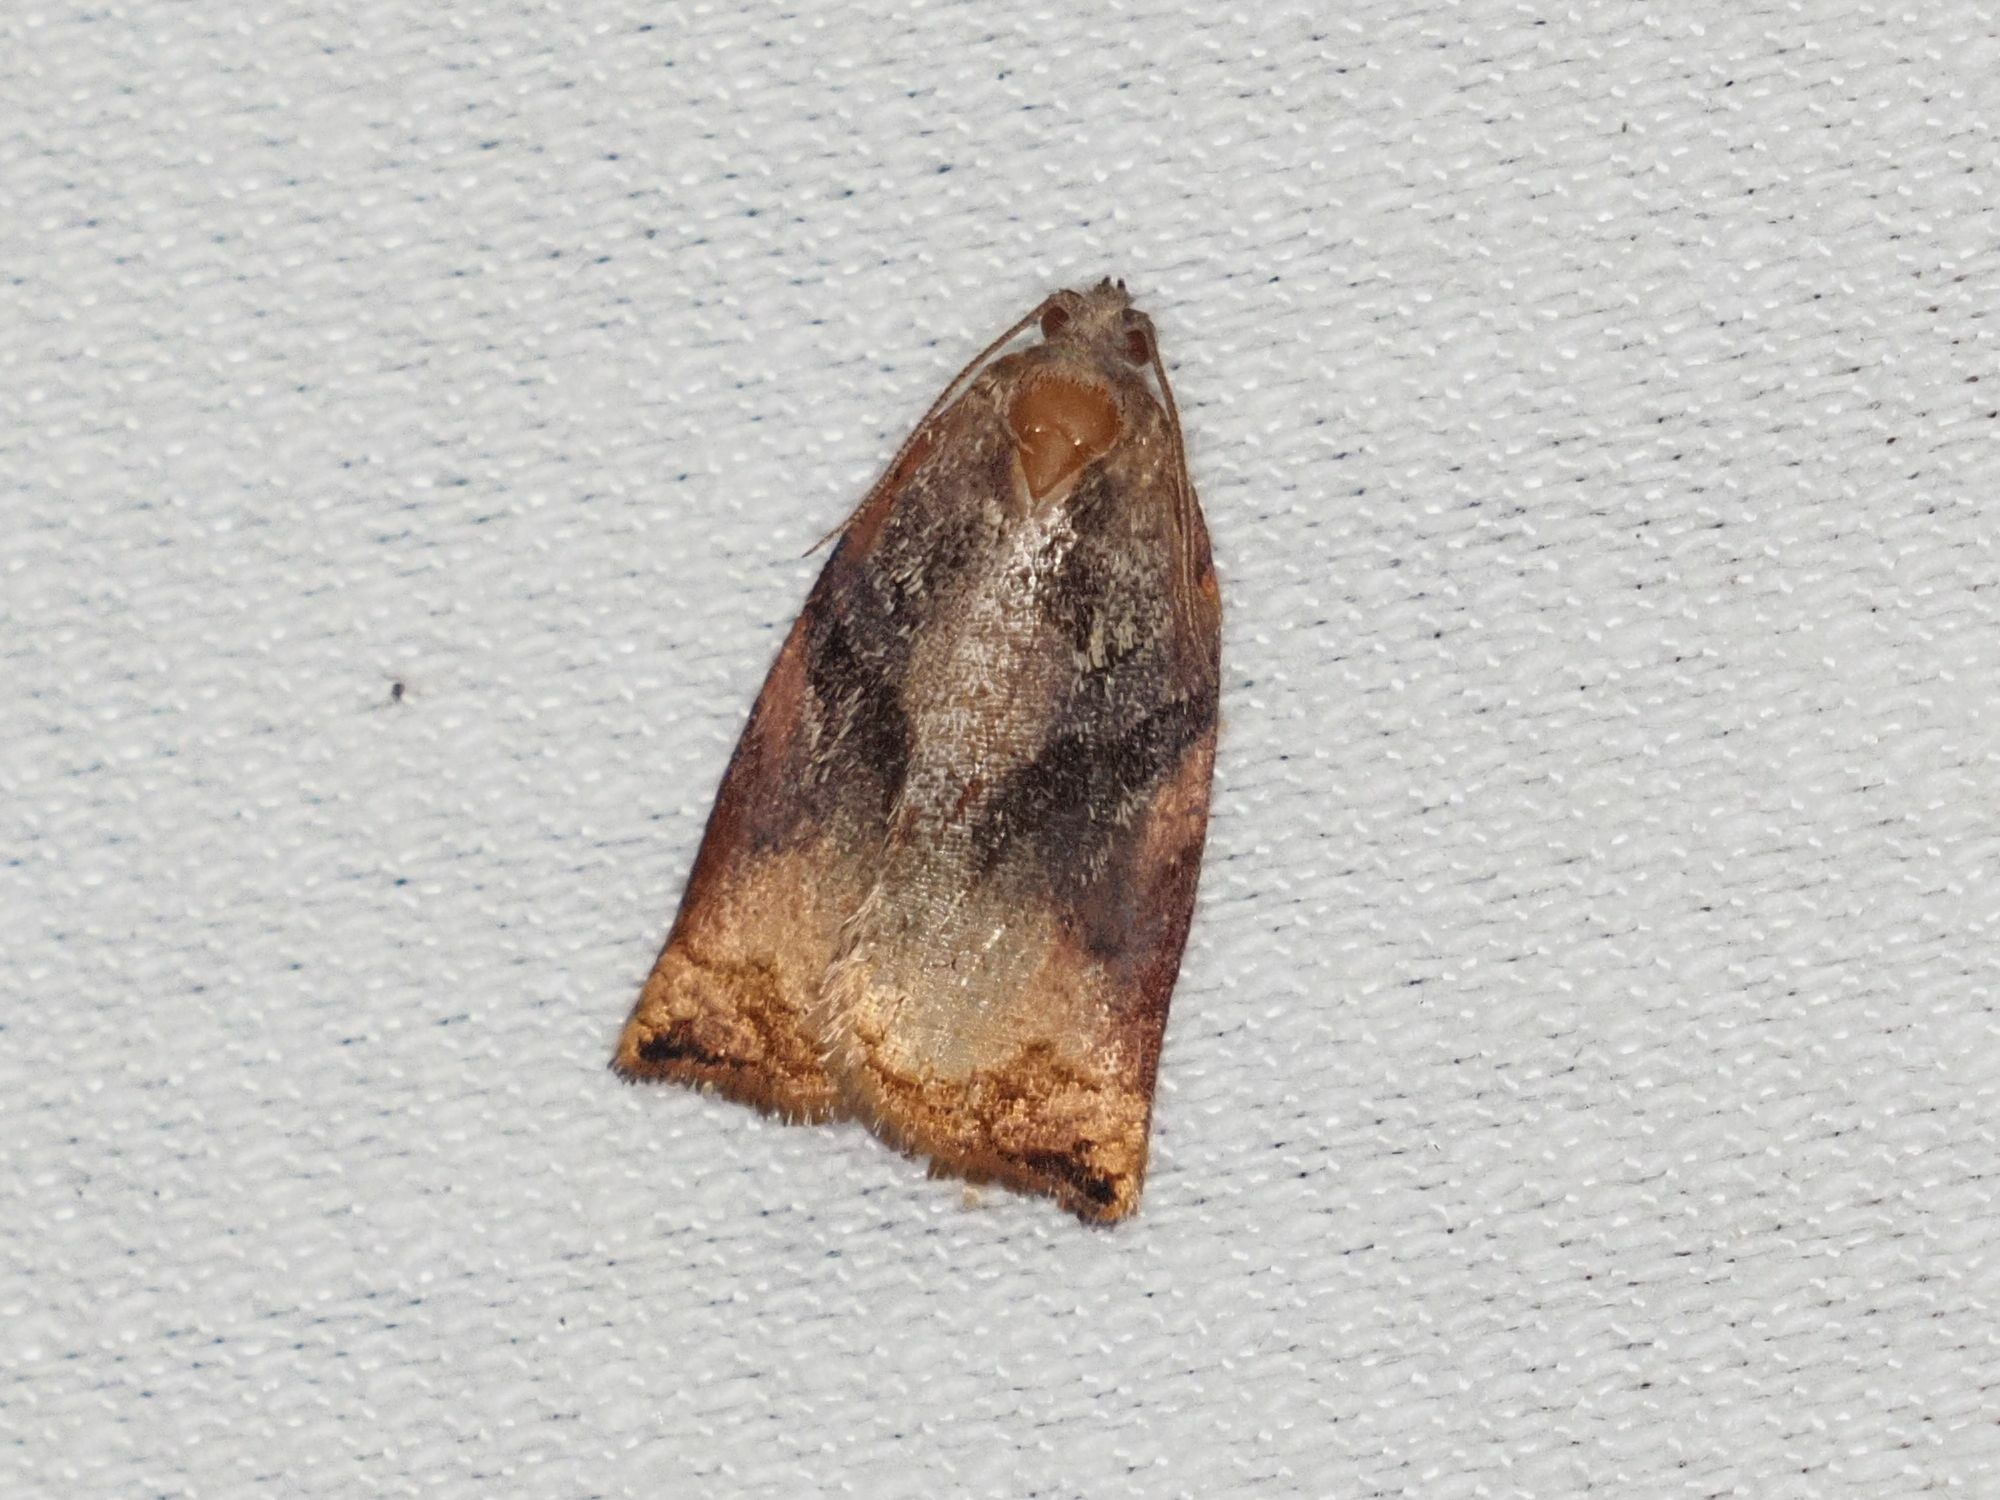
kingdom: Animalia
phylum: Arthropoda
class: Insecta
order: Lepidoptera
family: Tortricidae
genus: Archips
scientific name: Archips podana
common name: Large fruit-tree tortrix
